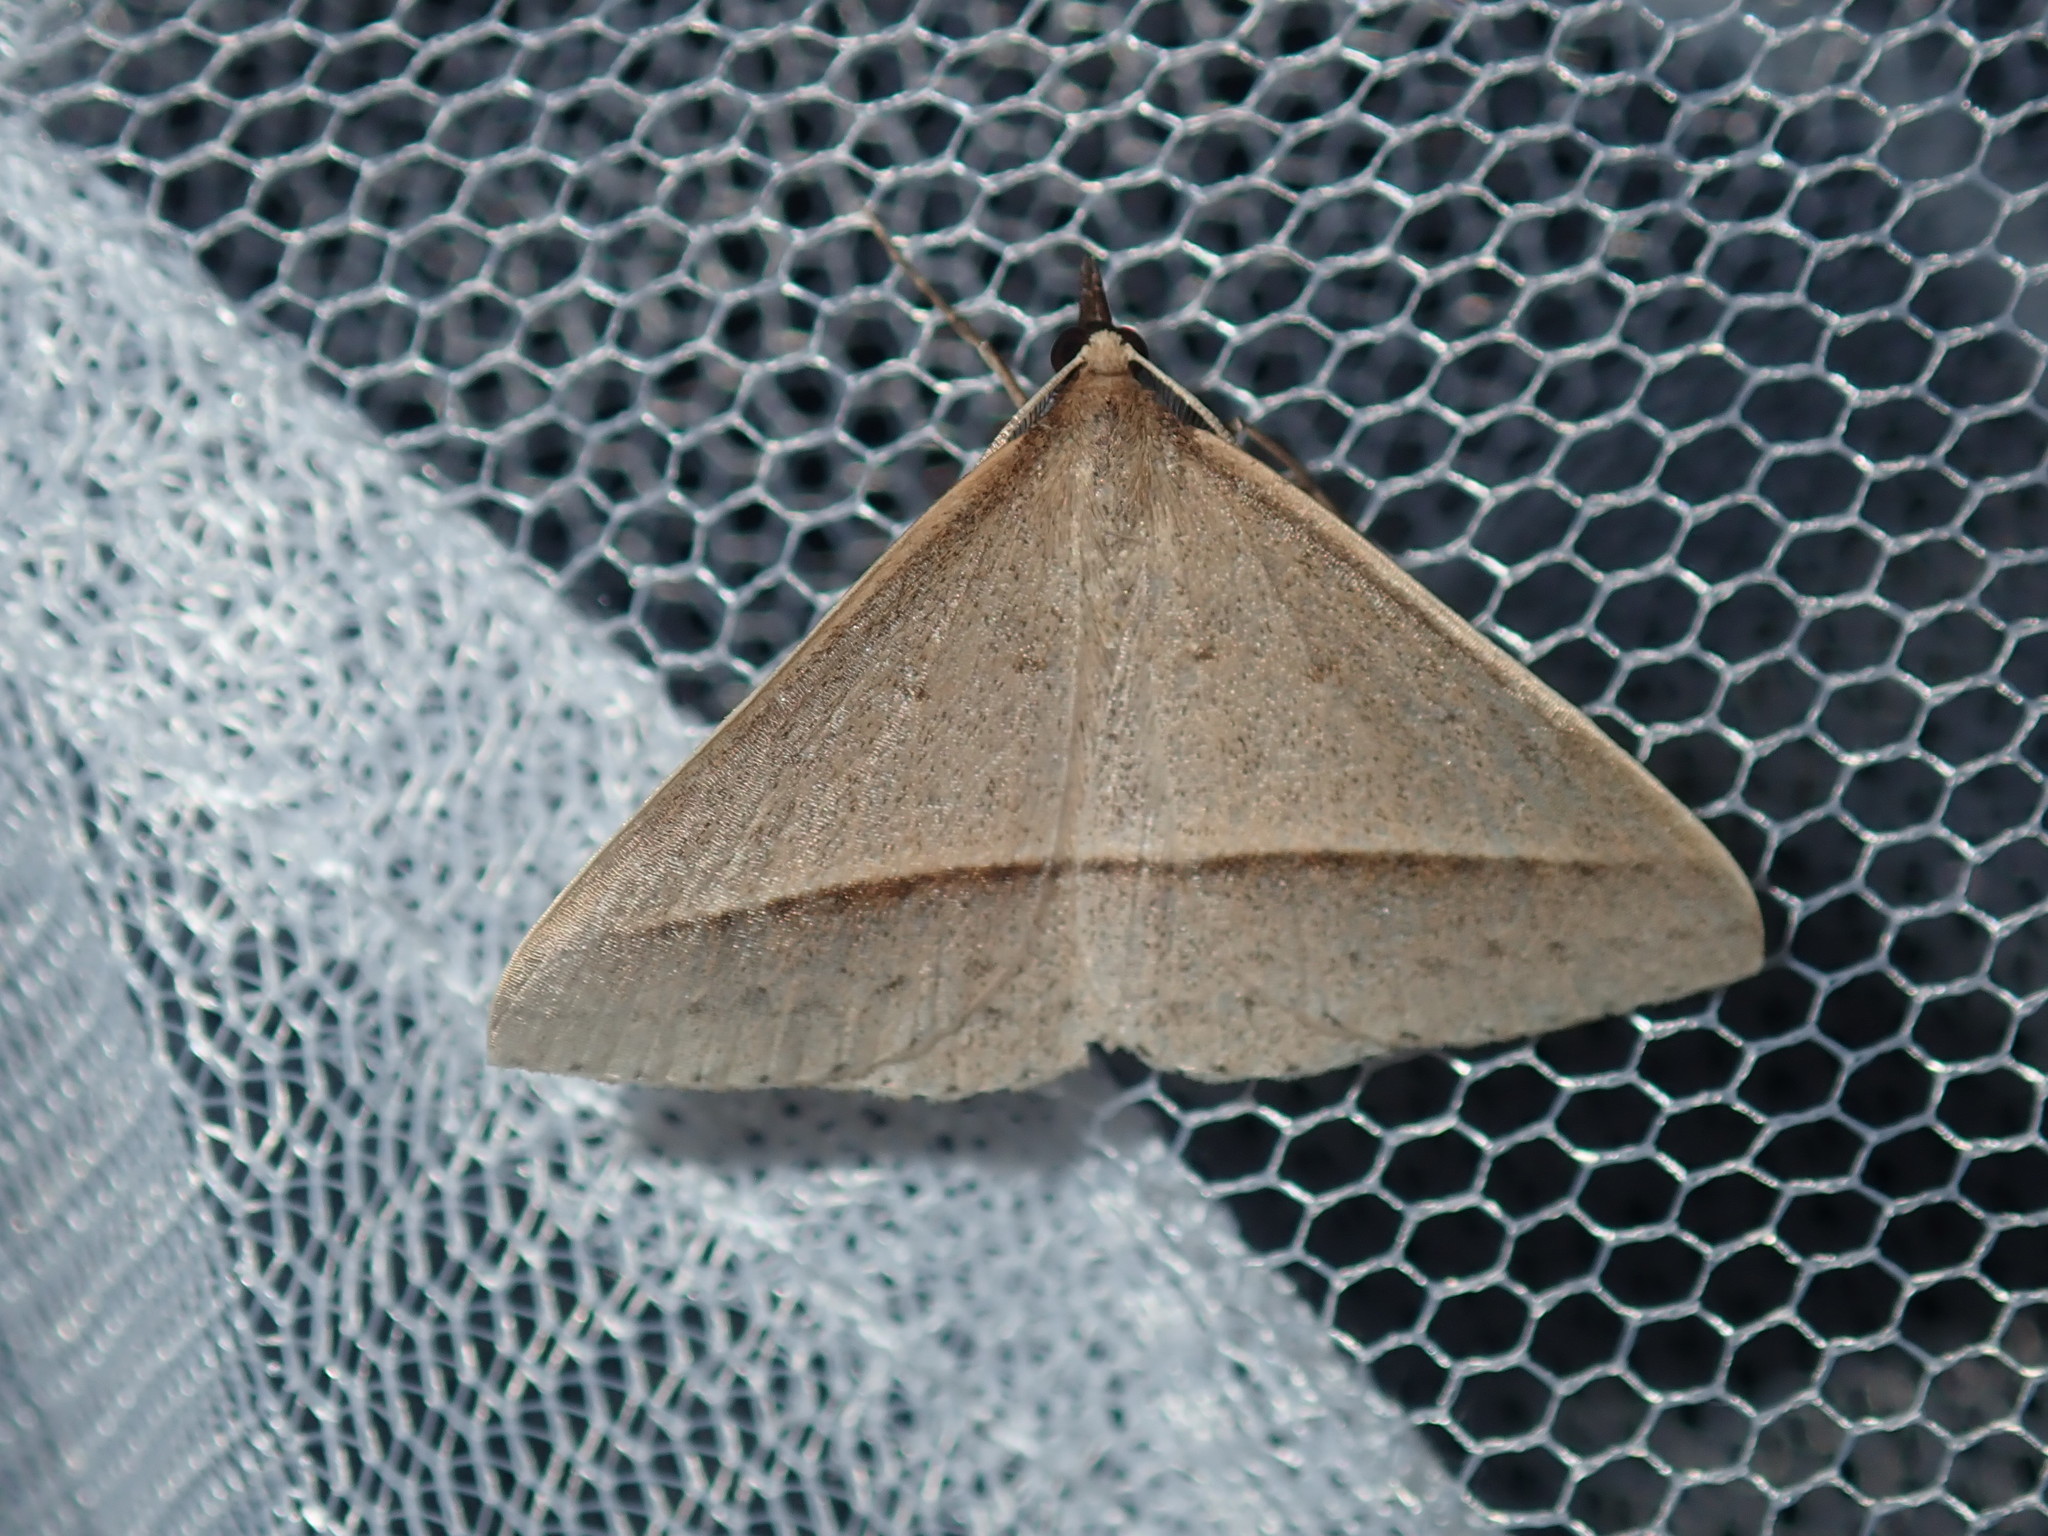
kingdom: Animalia
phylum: Arthropoda
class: Insecta
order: Lepidoptera
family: Geometridae
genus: Epidesmia
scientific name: Epidesmia tryxaria
